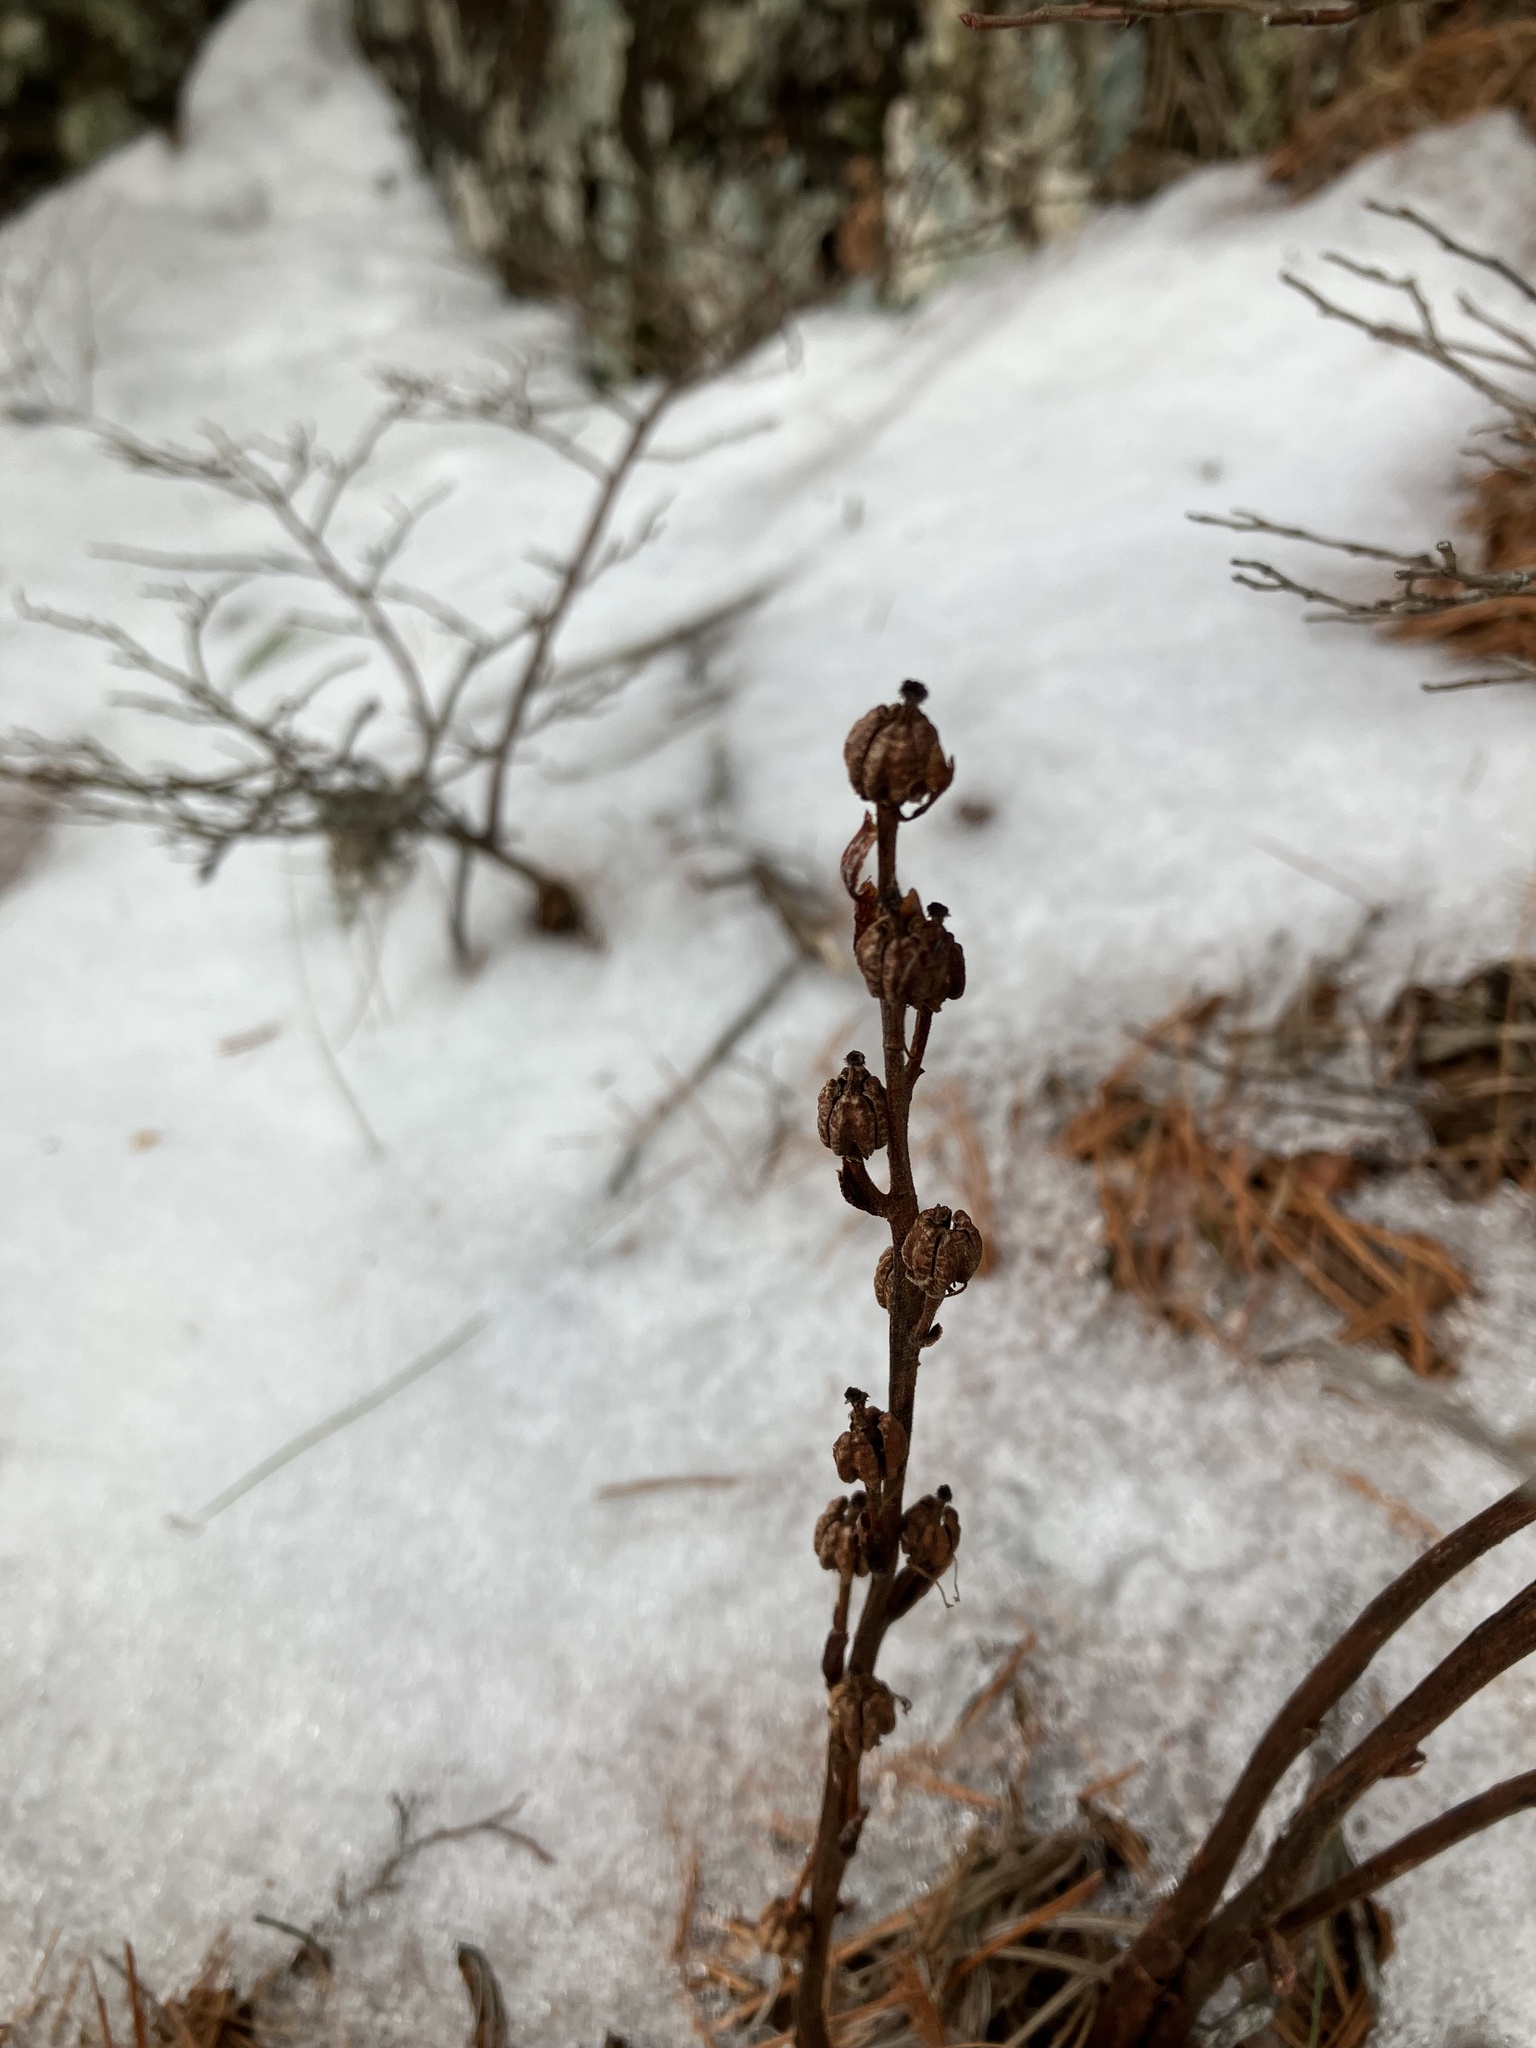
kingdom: Plantae
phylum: Tracheophyta
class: Magnoliopsida
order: Ericales
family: Ericaceae
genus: Hypopitys
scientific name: Hypopitys monotropa
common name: Yellow bird's-nest
